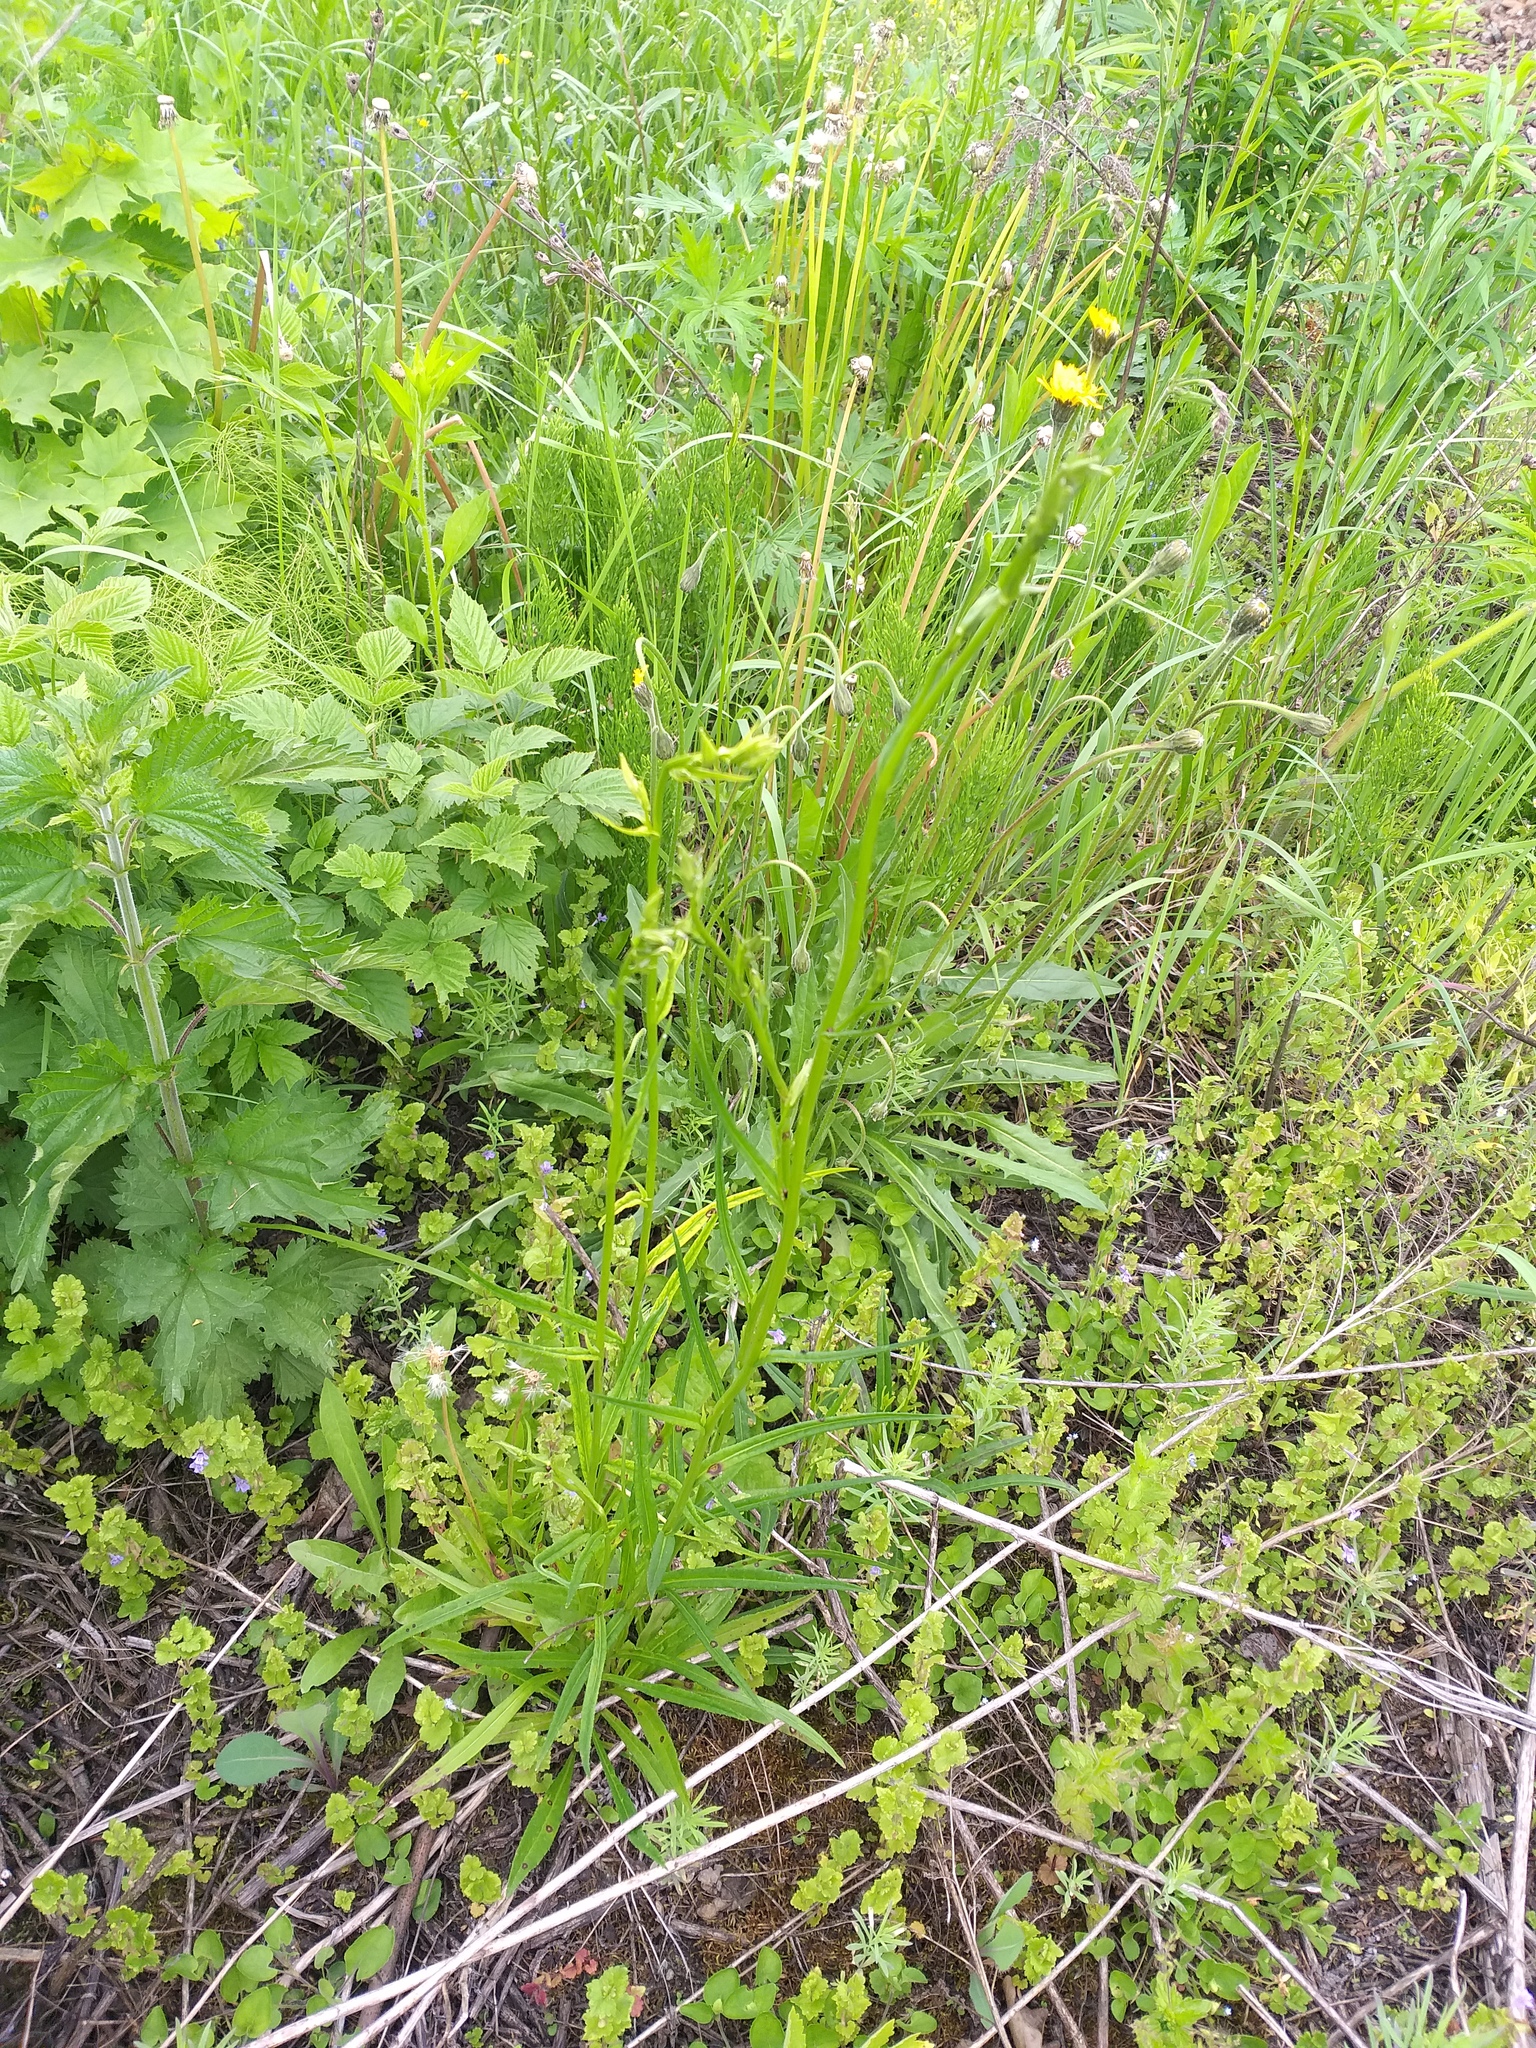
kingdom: Plantae
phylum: Tracheophyta
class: Magnoliopsida
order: Asterales
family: Campanulaceae
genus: Campanula
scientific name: Campanula persicifolia
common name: Peach-leaved bellflower
